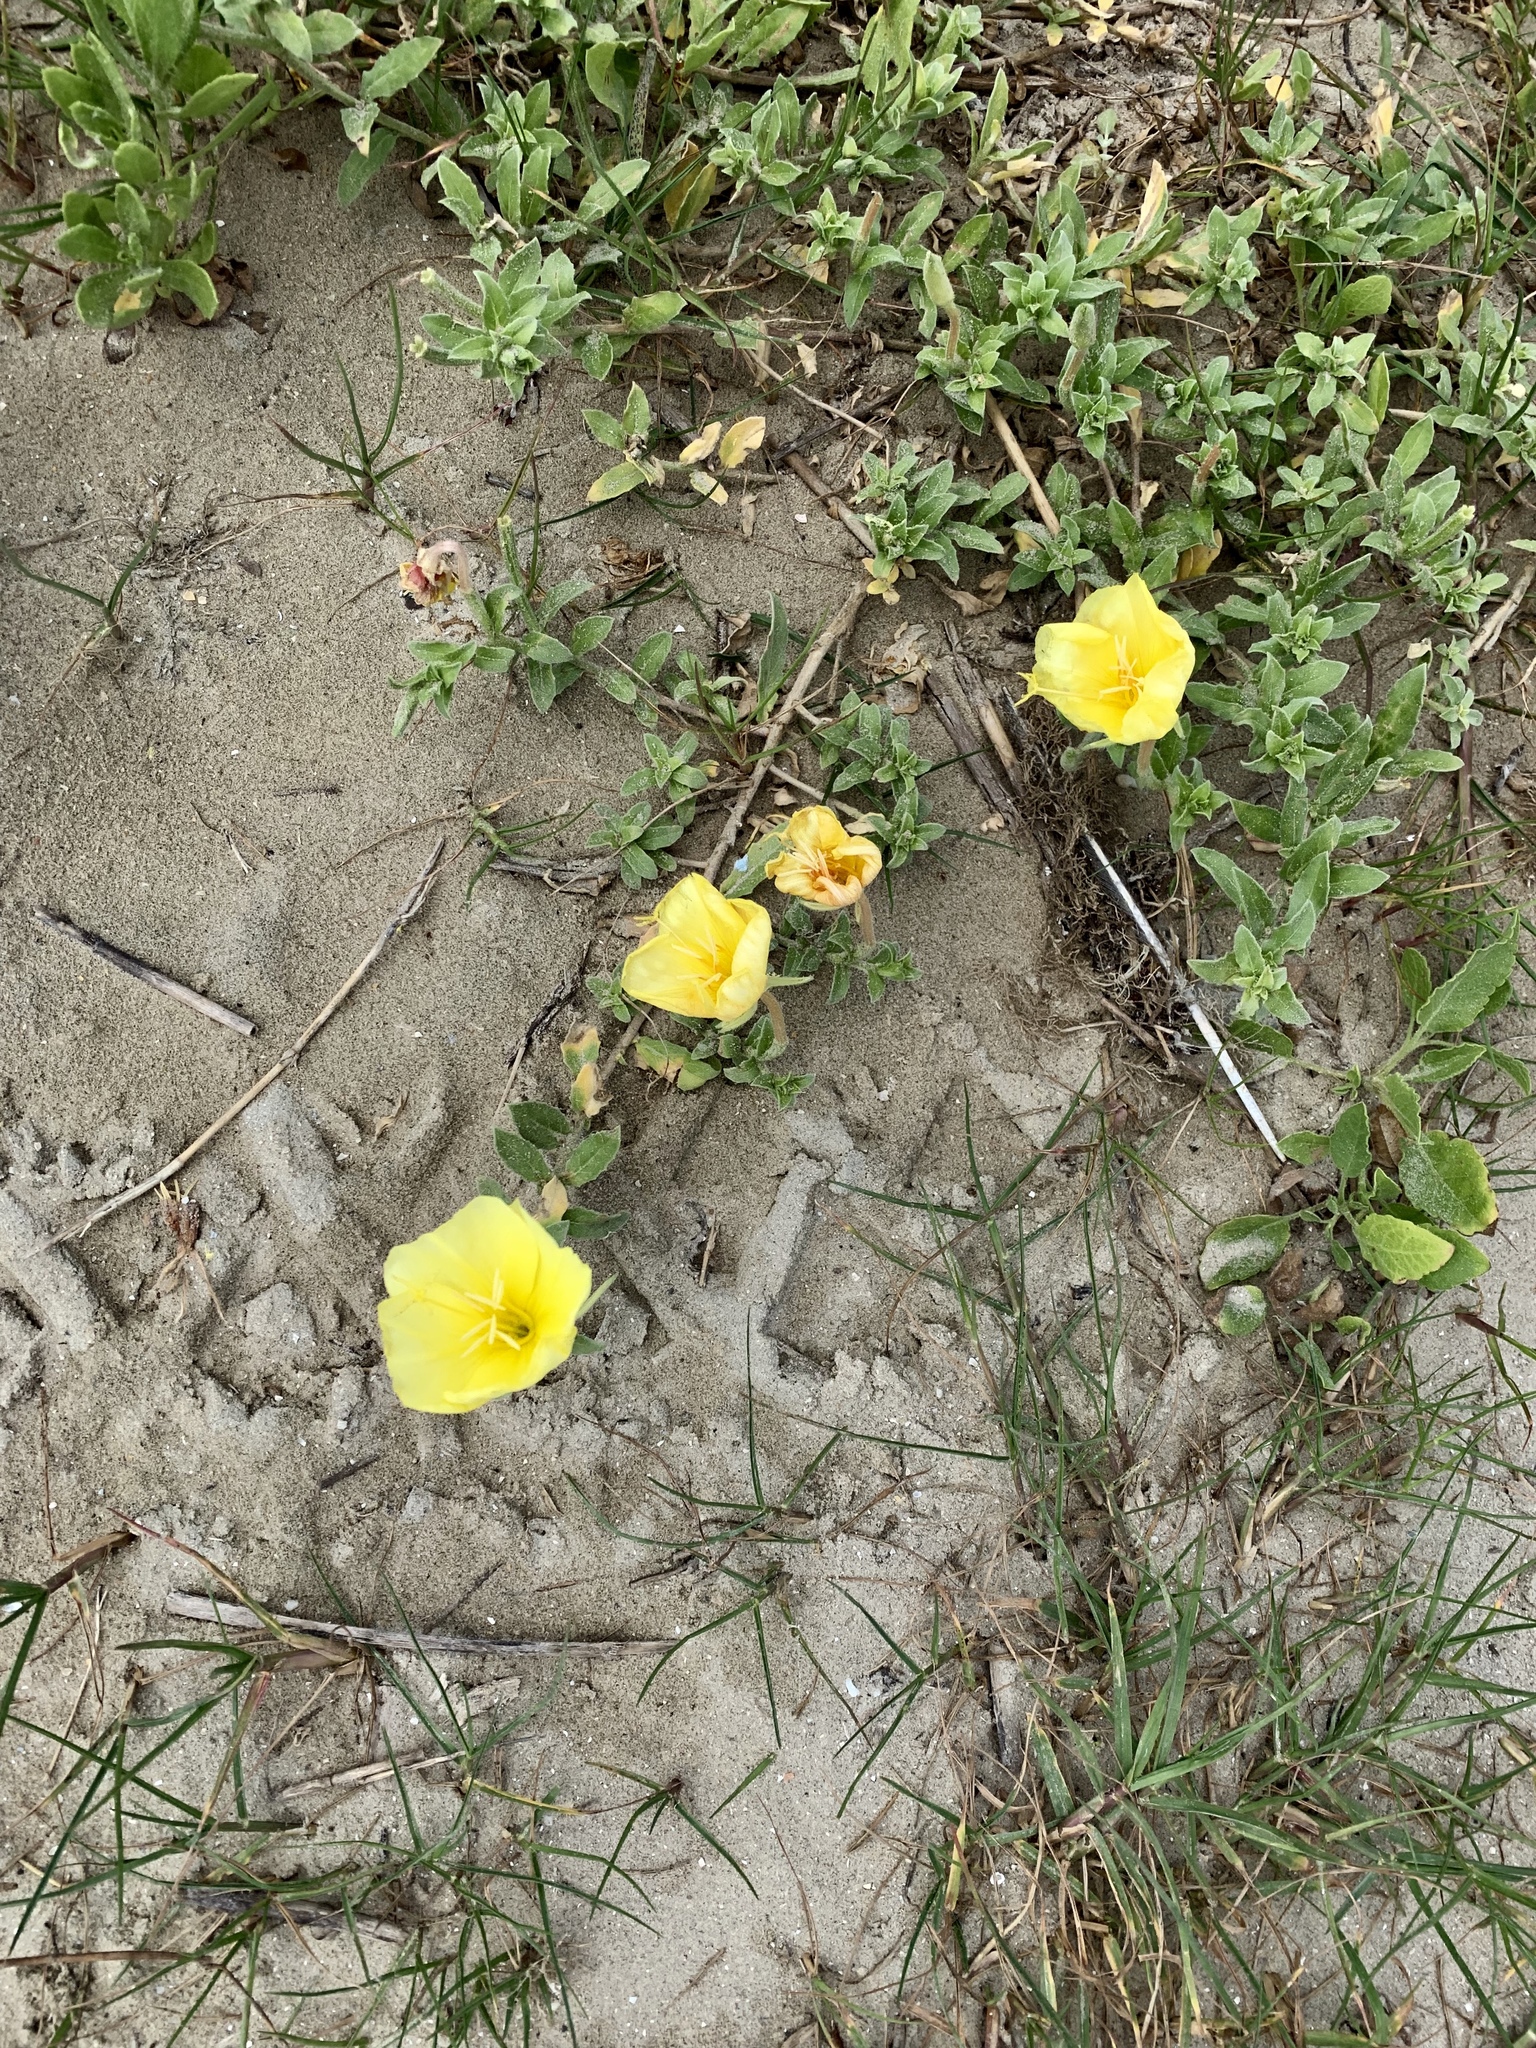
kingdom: Plantae
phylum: Tracheophyta
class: Magnoliopsida
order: Myrtales
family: Onagraceae
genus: Oenothera
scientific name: Oenothera drummondii
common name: Beach evening-primrose
